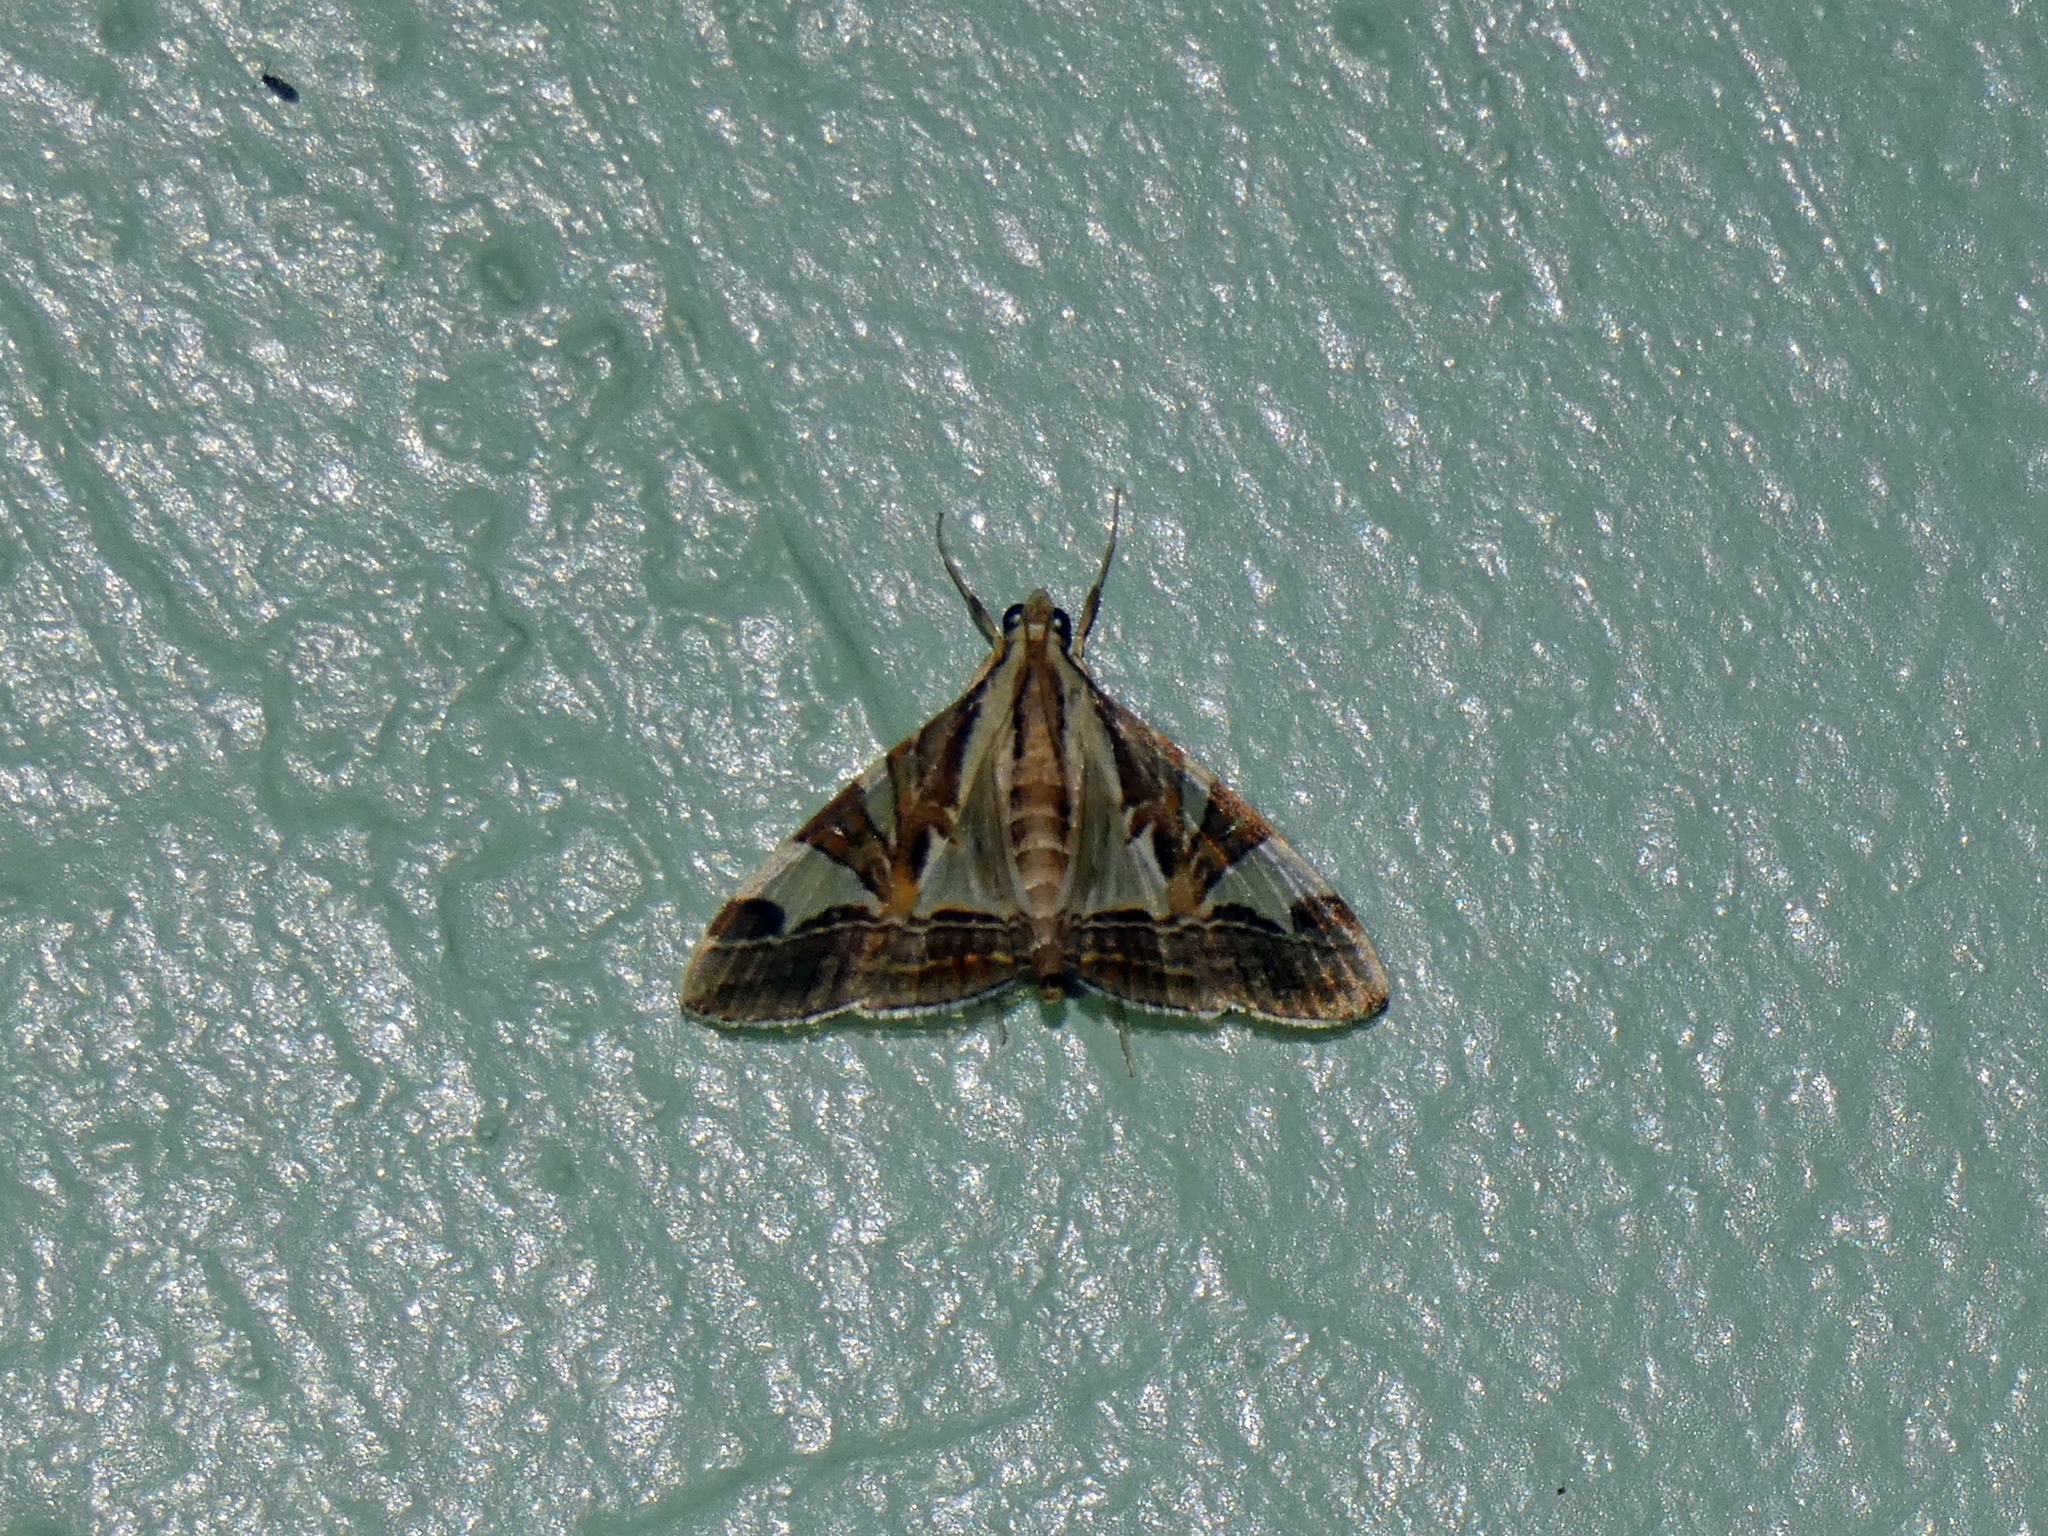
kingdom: Animalia
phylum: Arthropoda
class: Insecta
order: Lepidoptera
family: Crambidae
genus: Agrioglypta
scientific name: Agrioglypta itysalis
